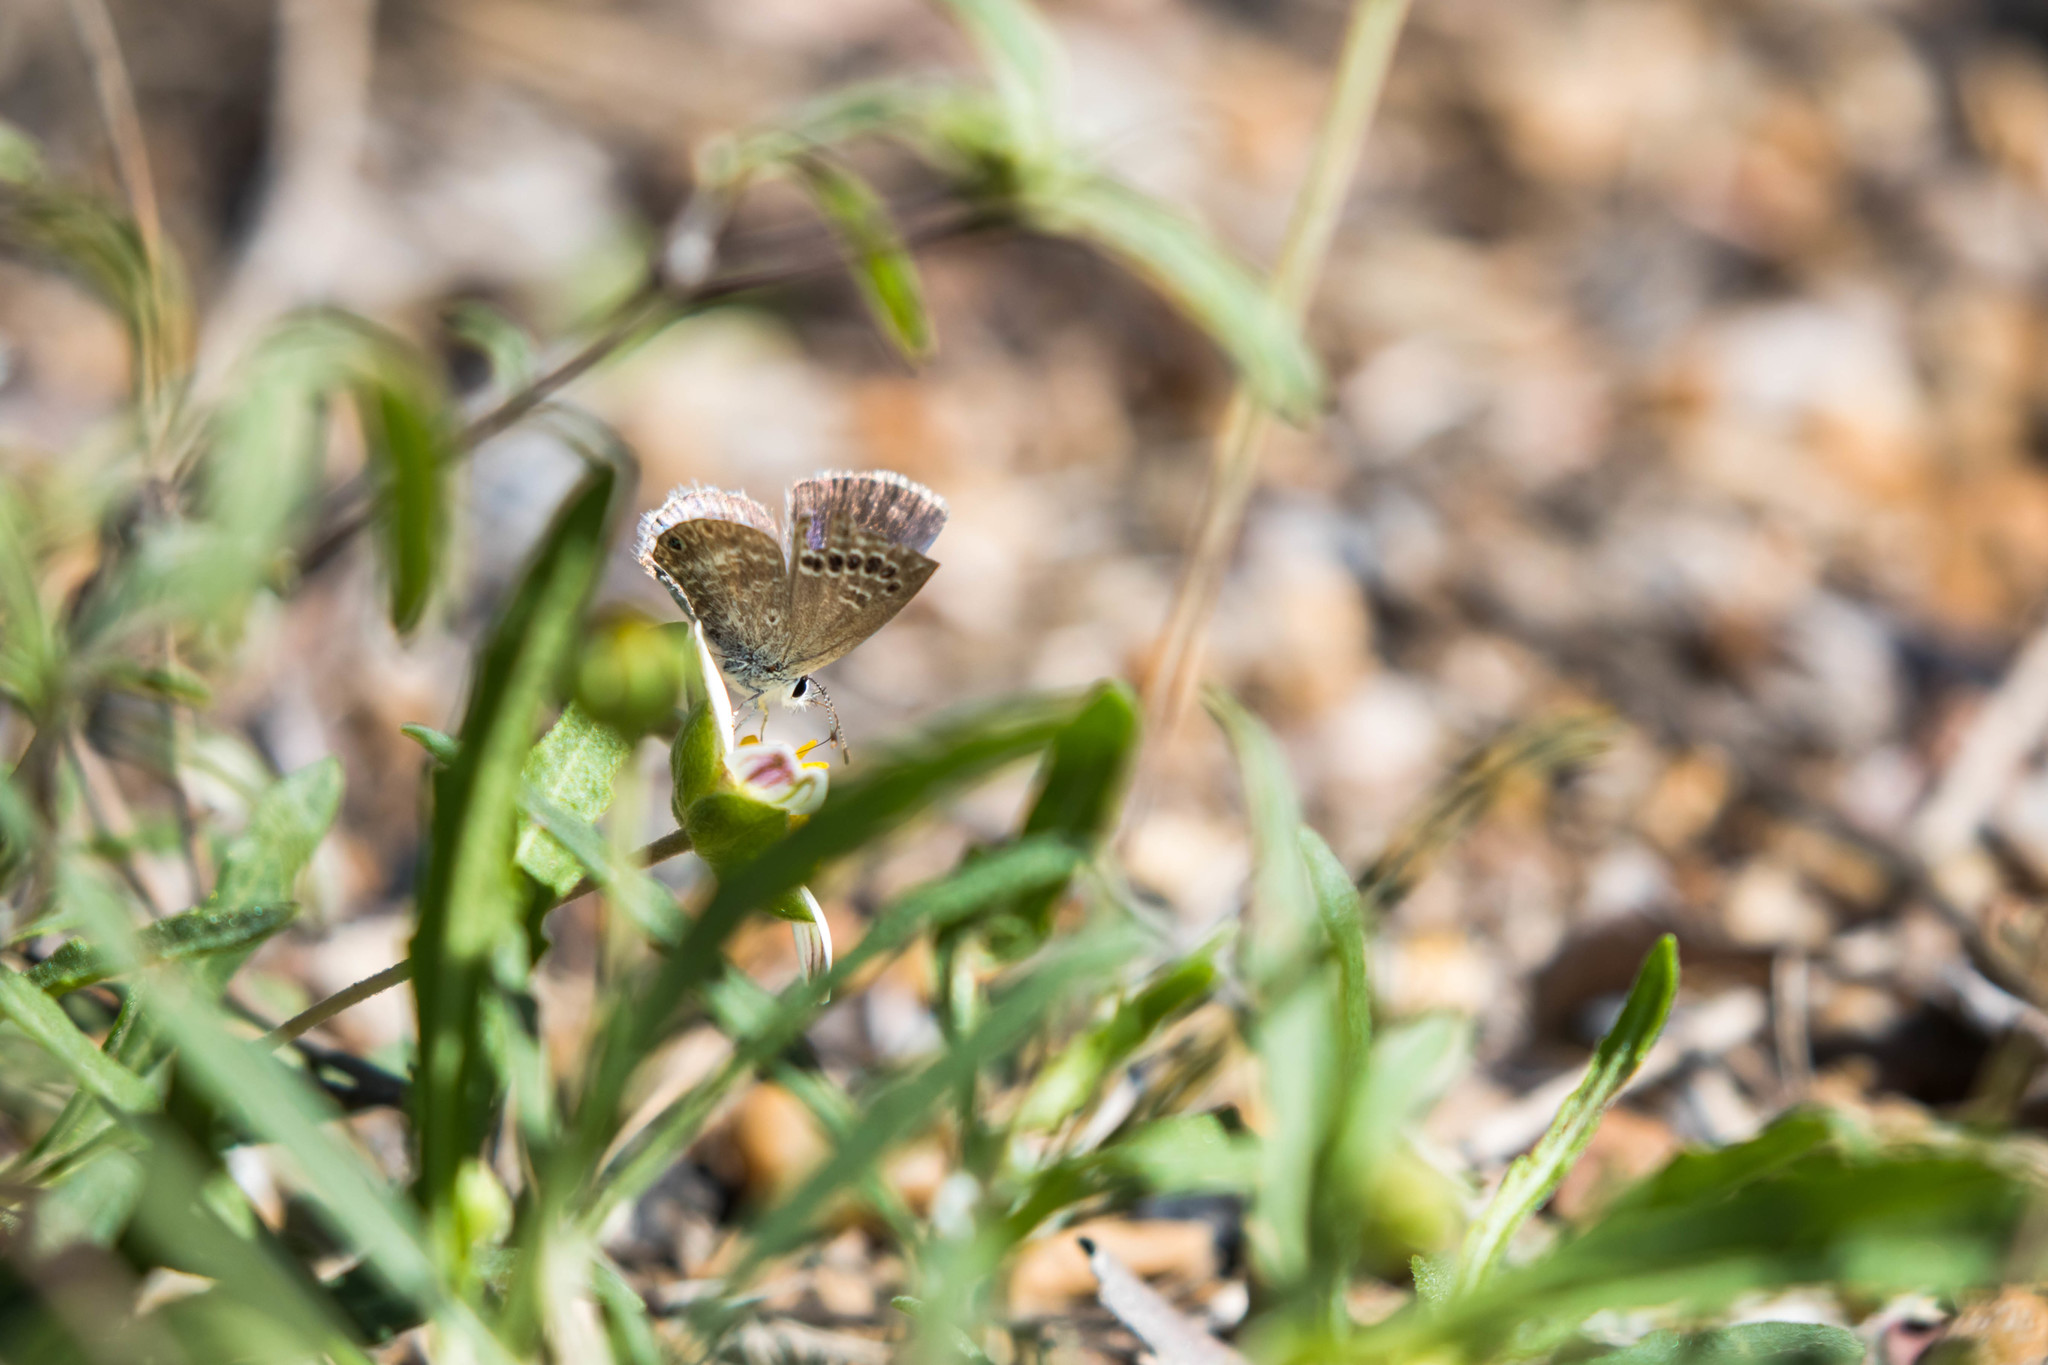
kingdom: Animalia
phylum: Arthropoda
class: Insecta
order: Lepidoptera
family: Lycaenidae
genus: Echinargus
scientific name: Echinargus isola
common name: Reakirt's blue
